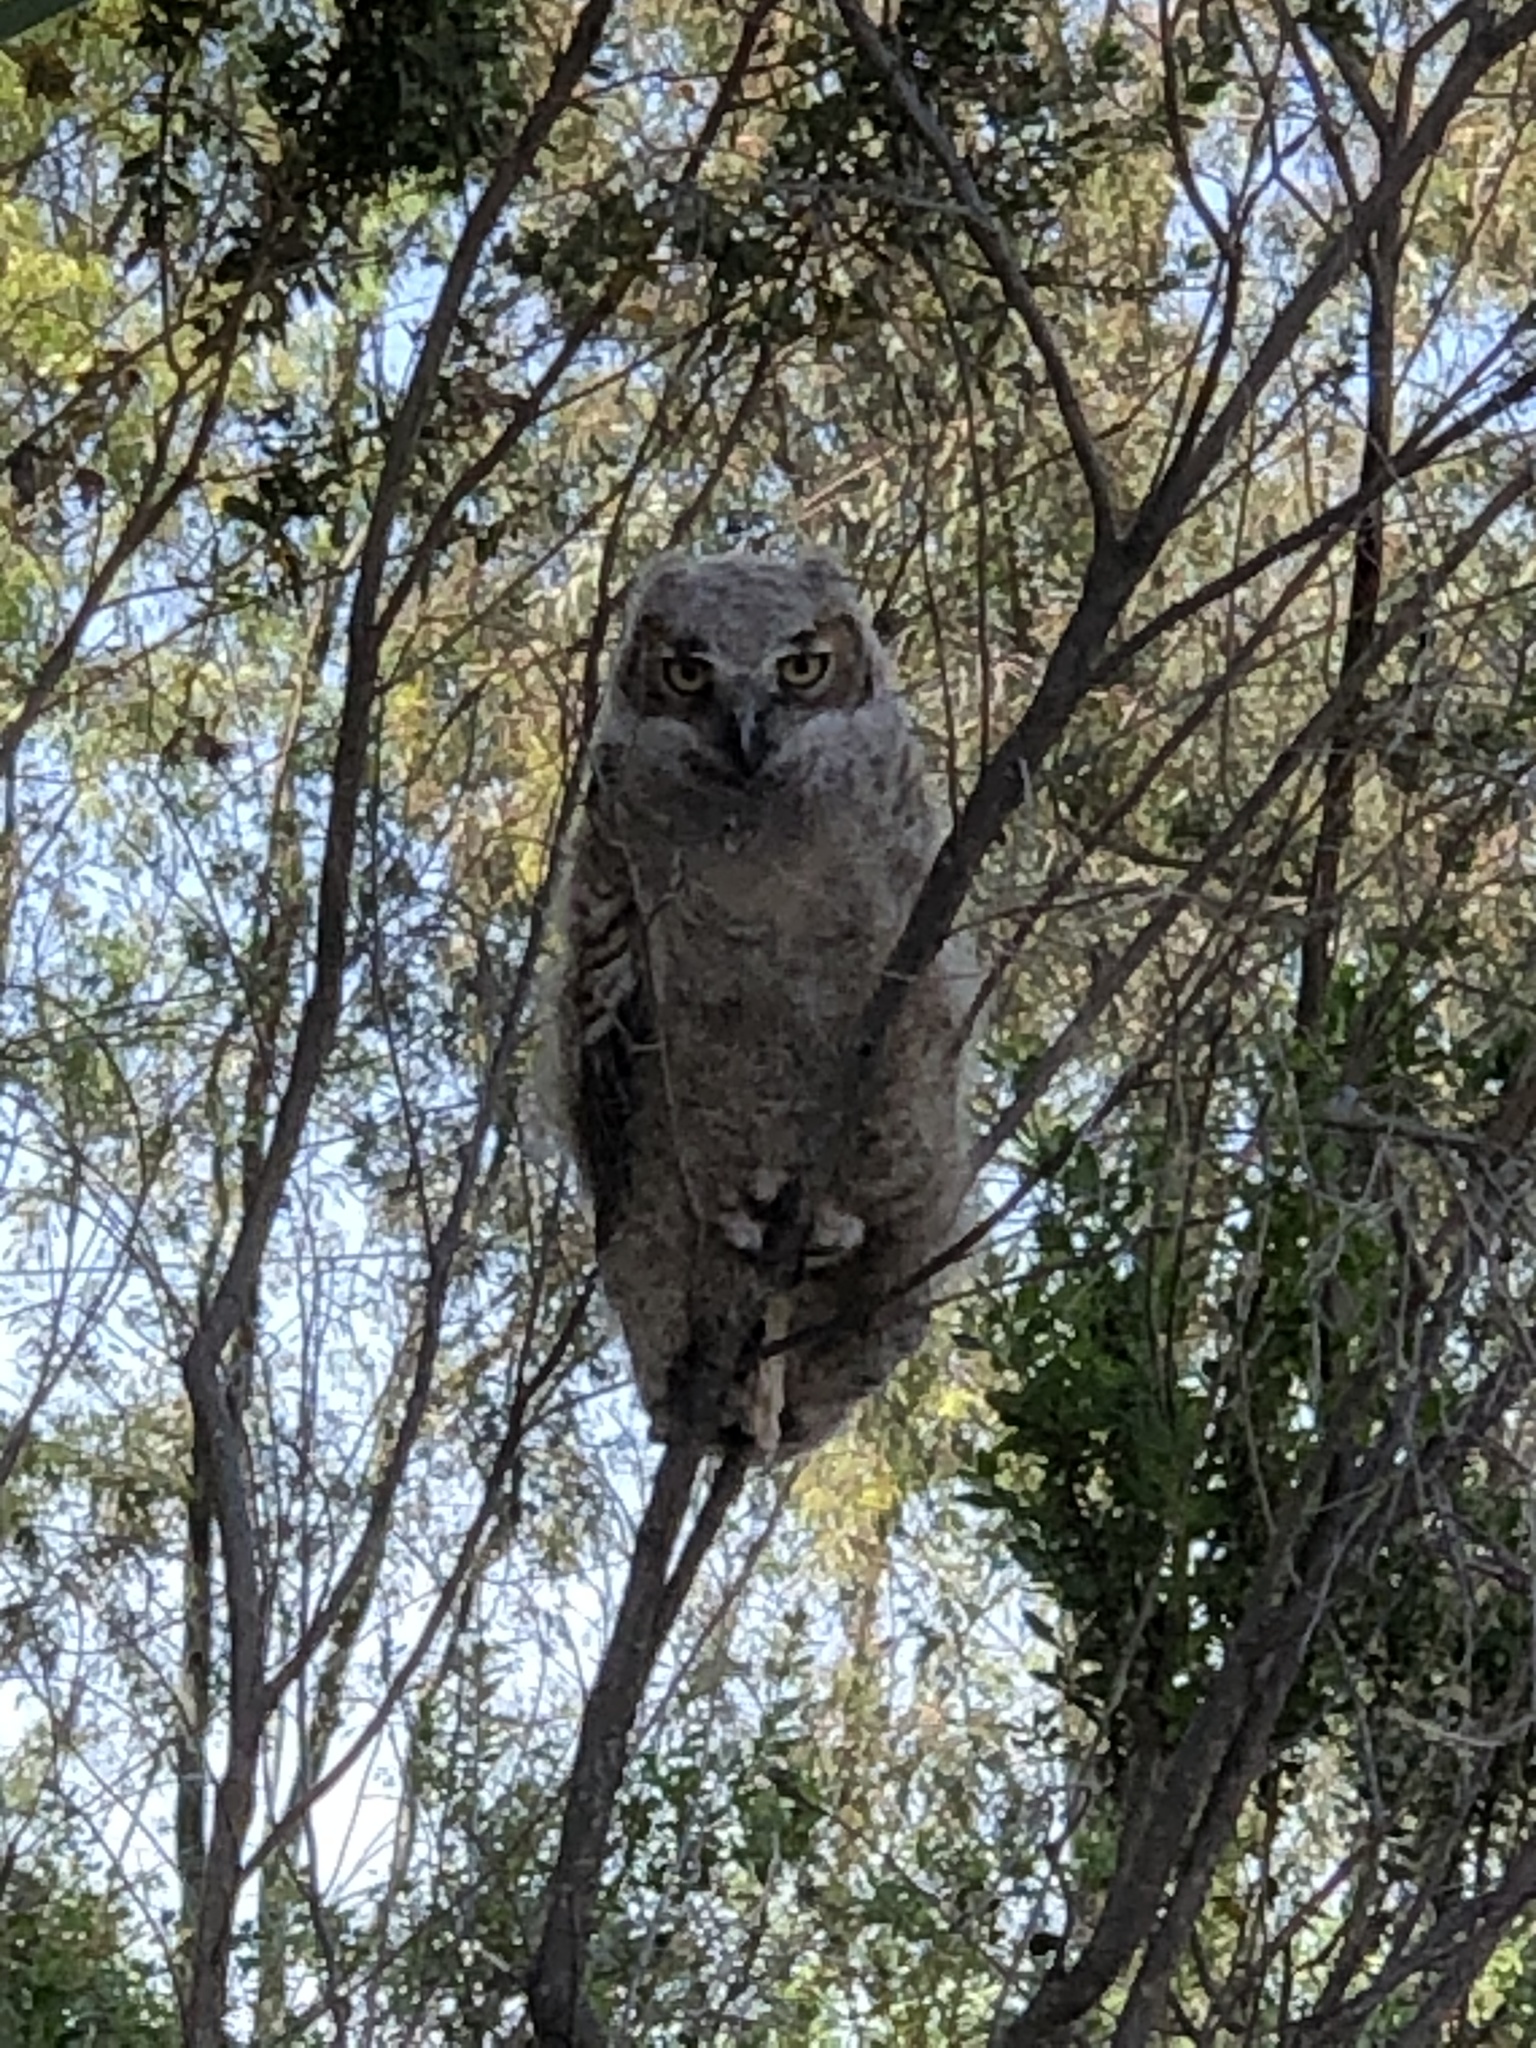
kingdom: Animalia
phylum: Chordata
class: Aves
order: Strigiformes
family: Strigidae
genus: Bubo
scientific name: Bubo virginianus
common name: Great horned owl
